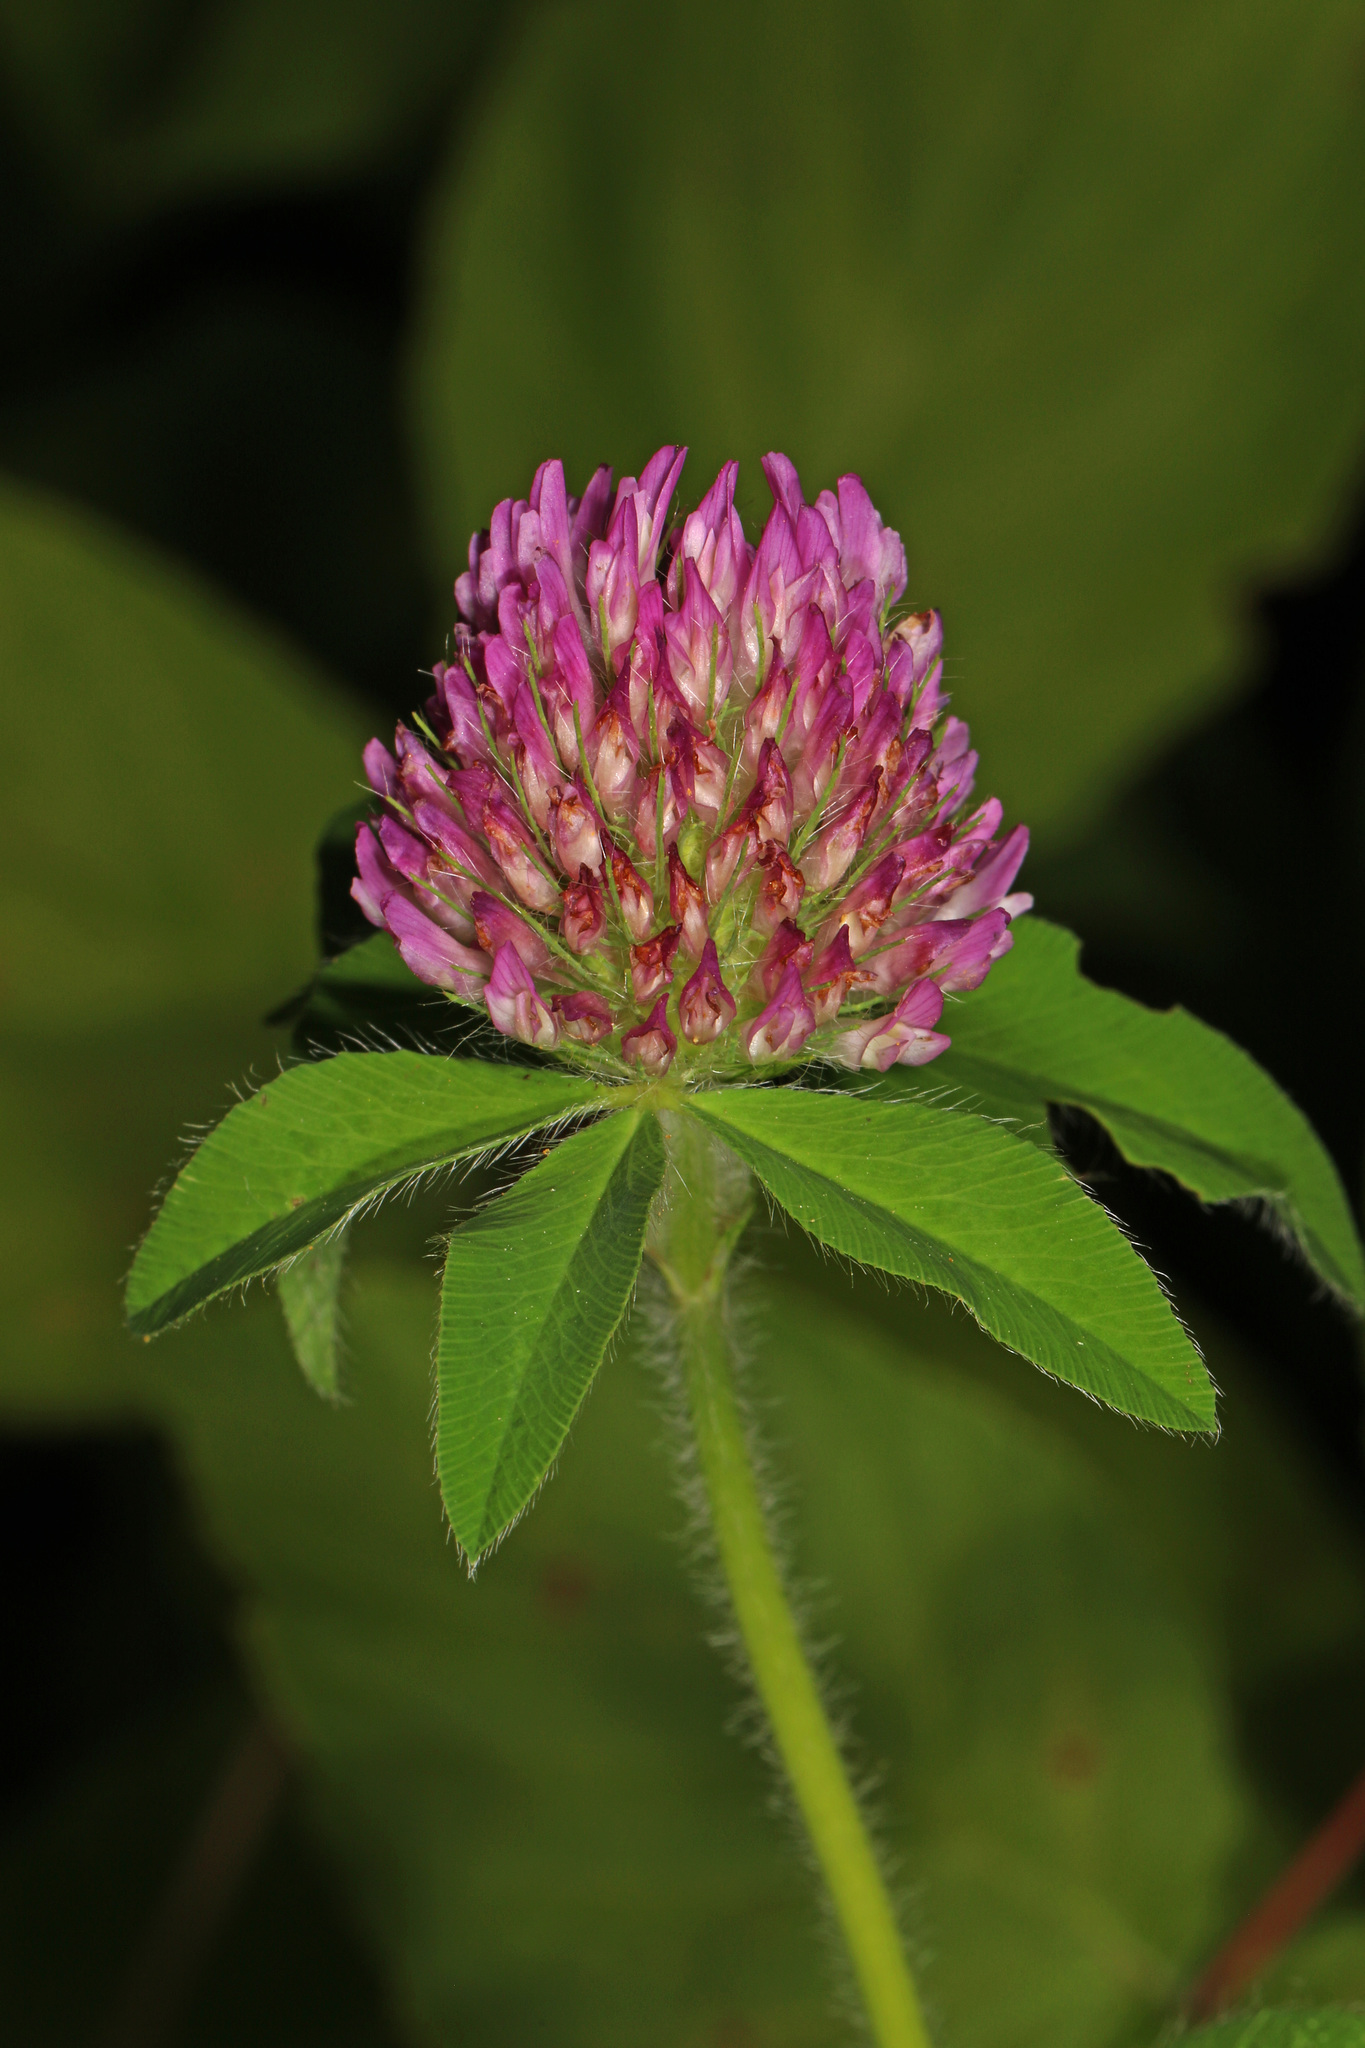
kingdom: Plantae
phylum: Tracheophyta
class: Magnoliopsida
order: Fabales
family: Fabaceae
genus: Trifolium
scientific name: Trifolium pratense
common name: Red clover
